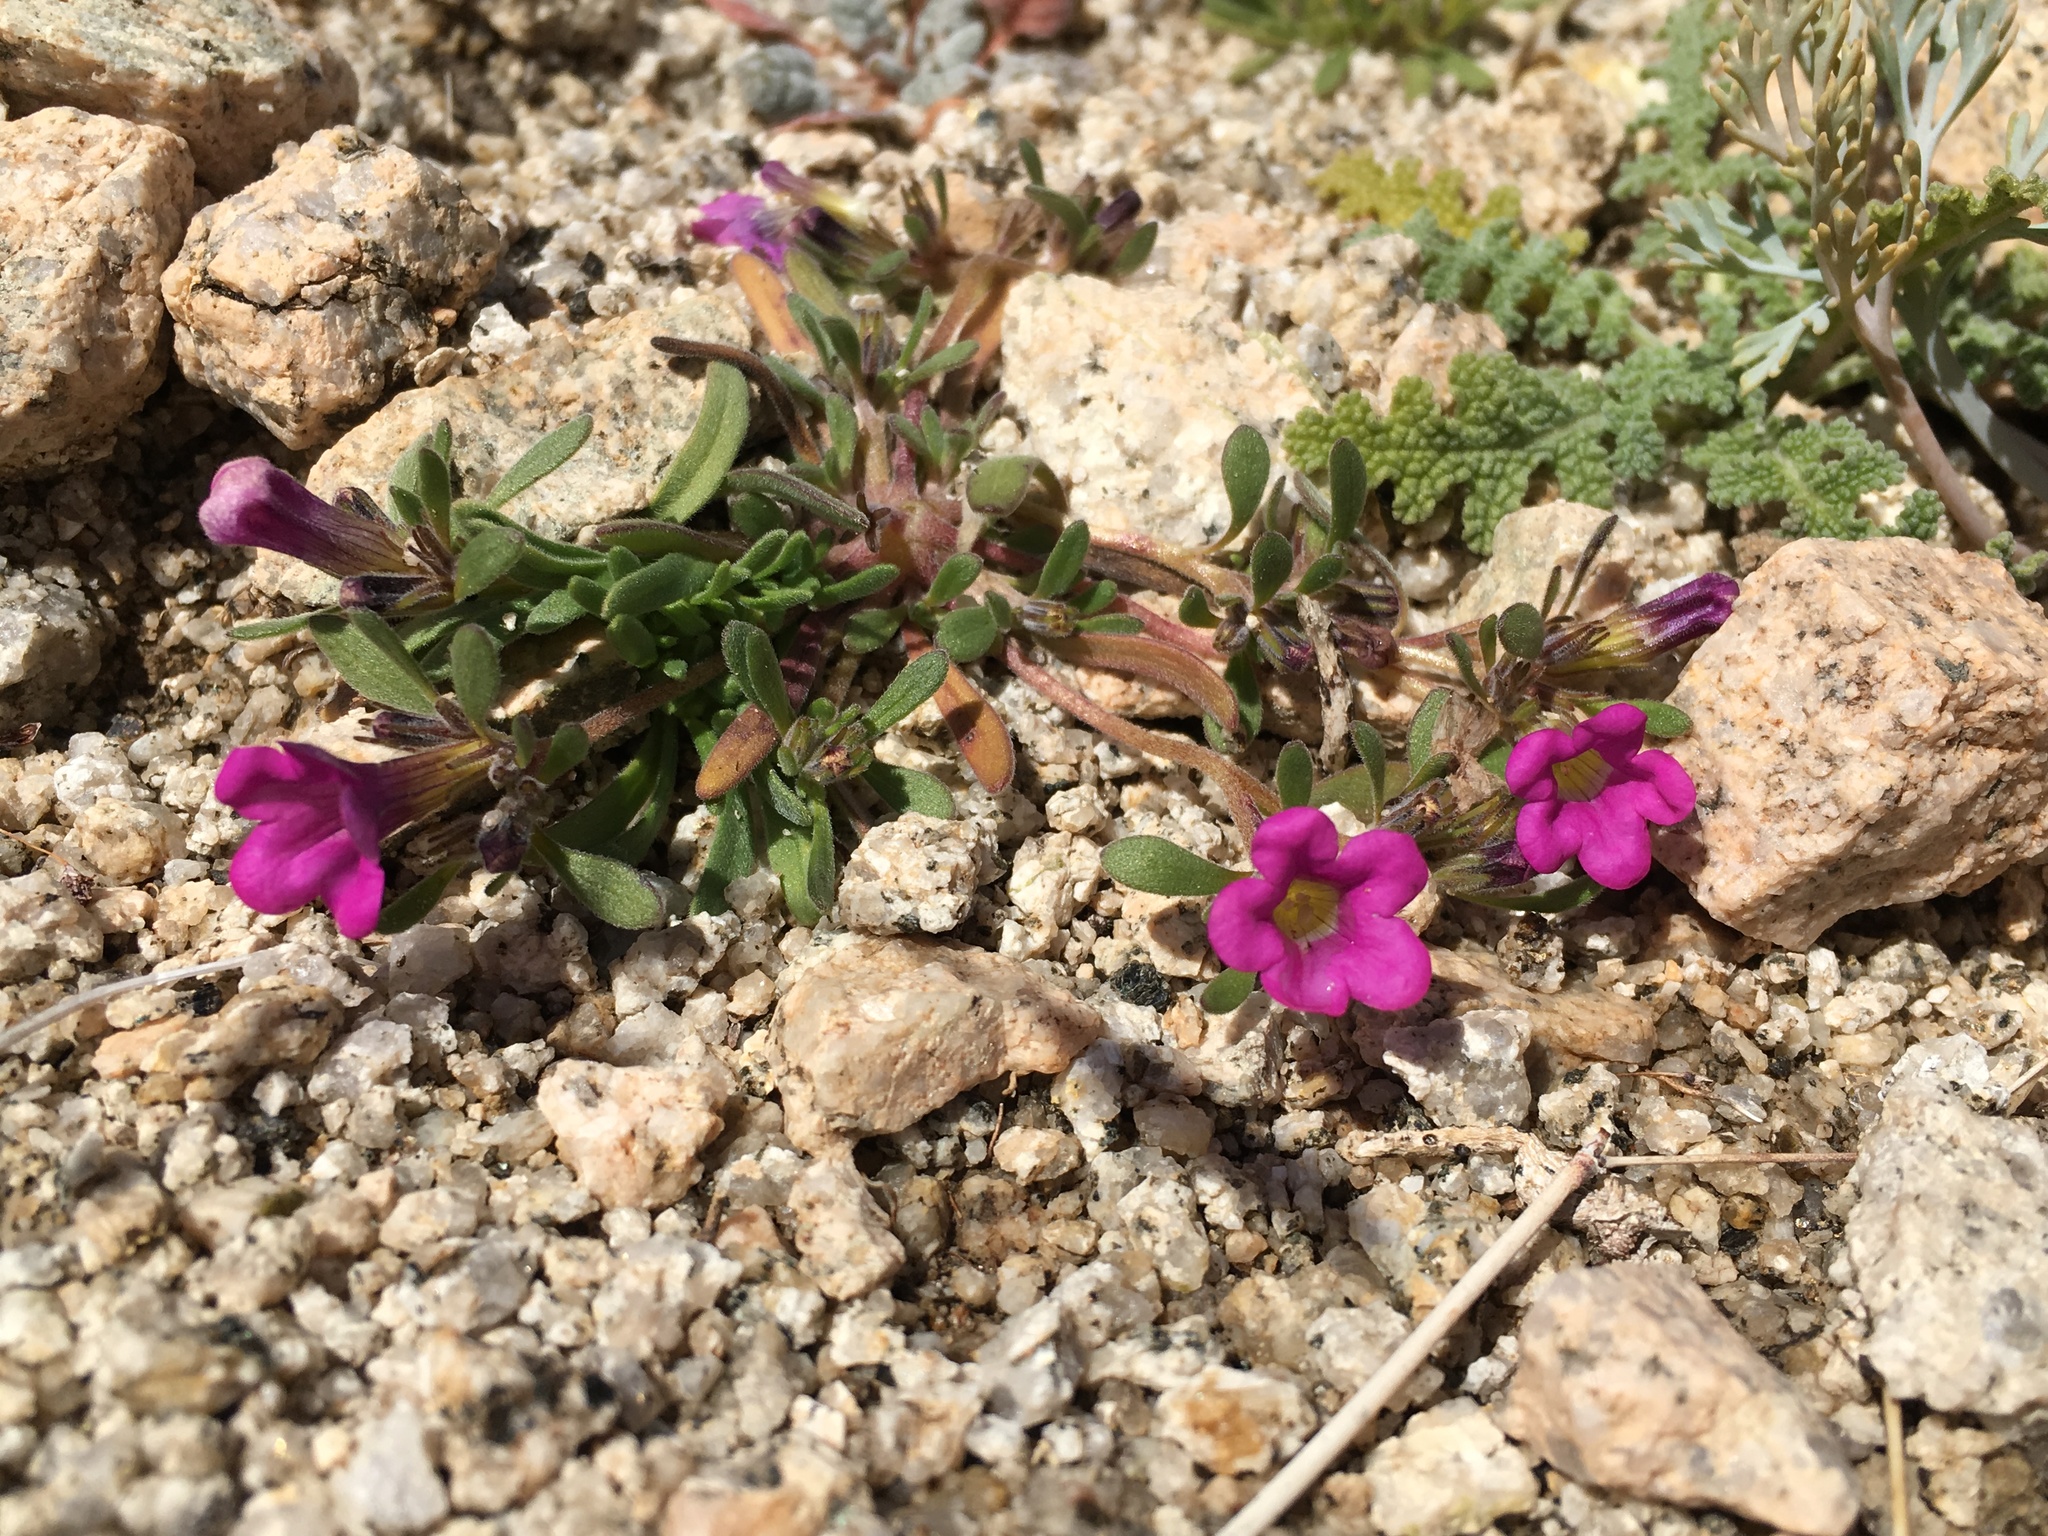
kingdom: Plantae
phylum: Tracheophyta
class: Magnoliopsida
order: Boraginales
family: Namaceae
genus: Nama
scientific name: Nama demissa
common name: Leafy nama
